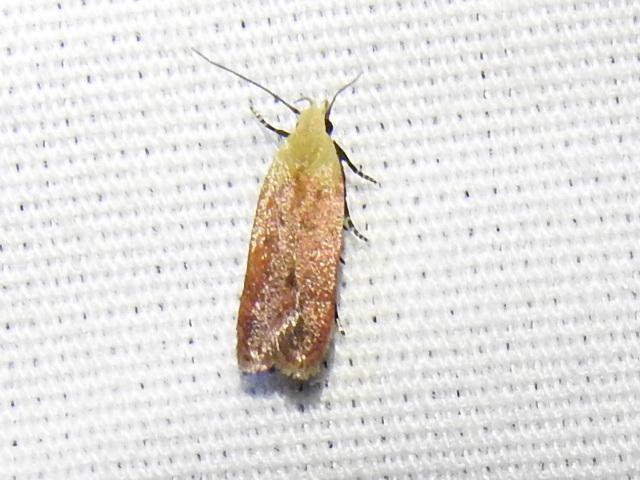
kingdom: Animalia
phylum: Arthropoda
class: Insecta
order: Lepidoptera
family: Gelechiidae
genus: Anacampsis
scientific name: Anacampsis fullonella
